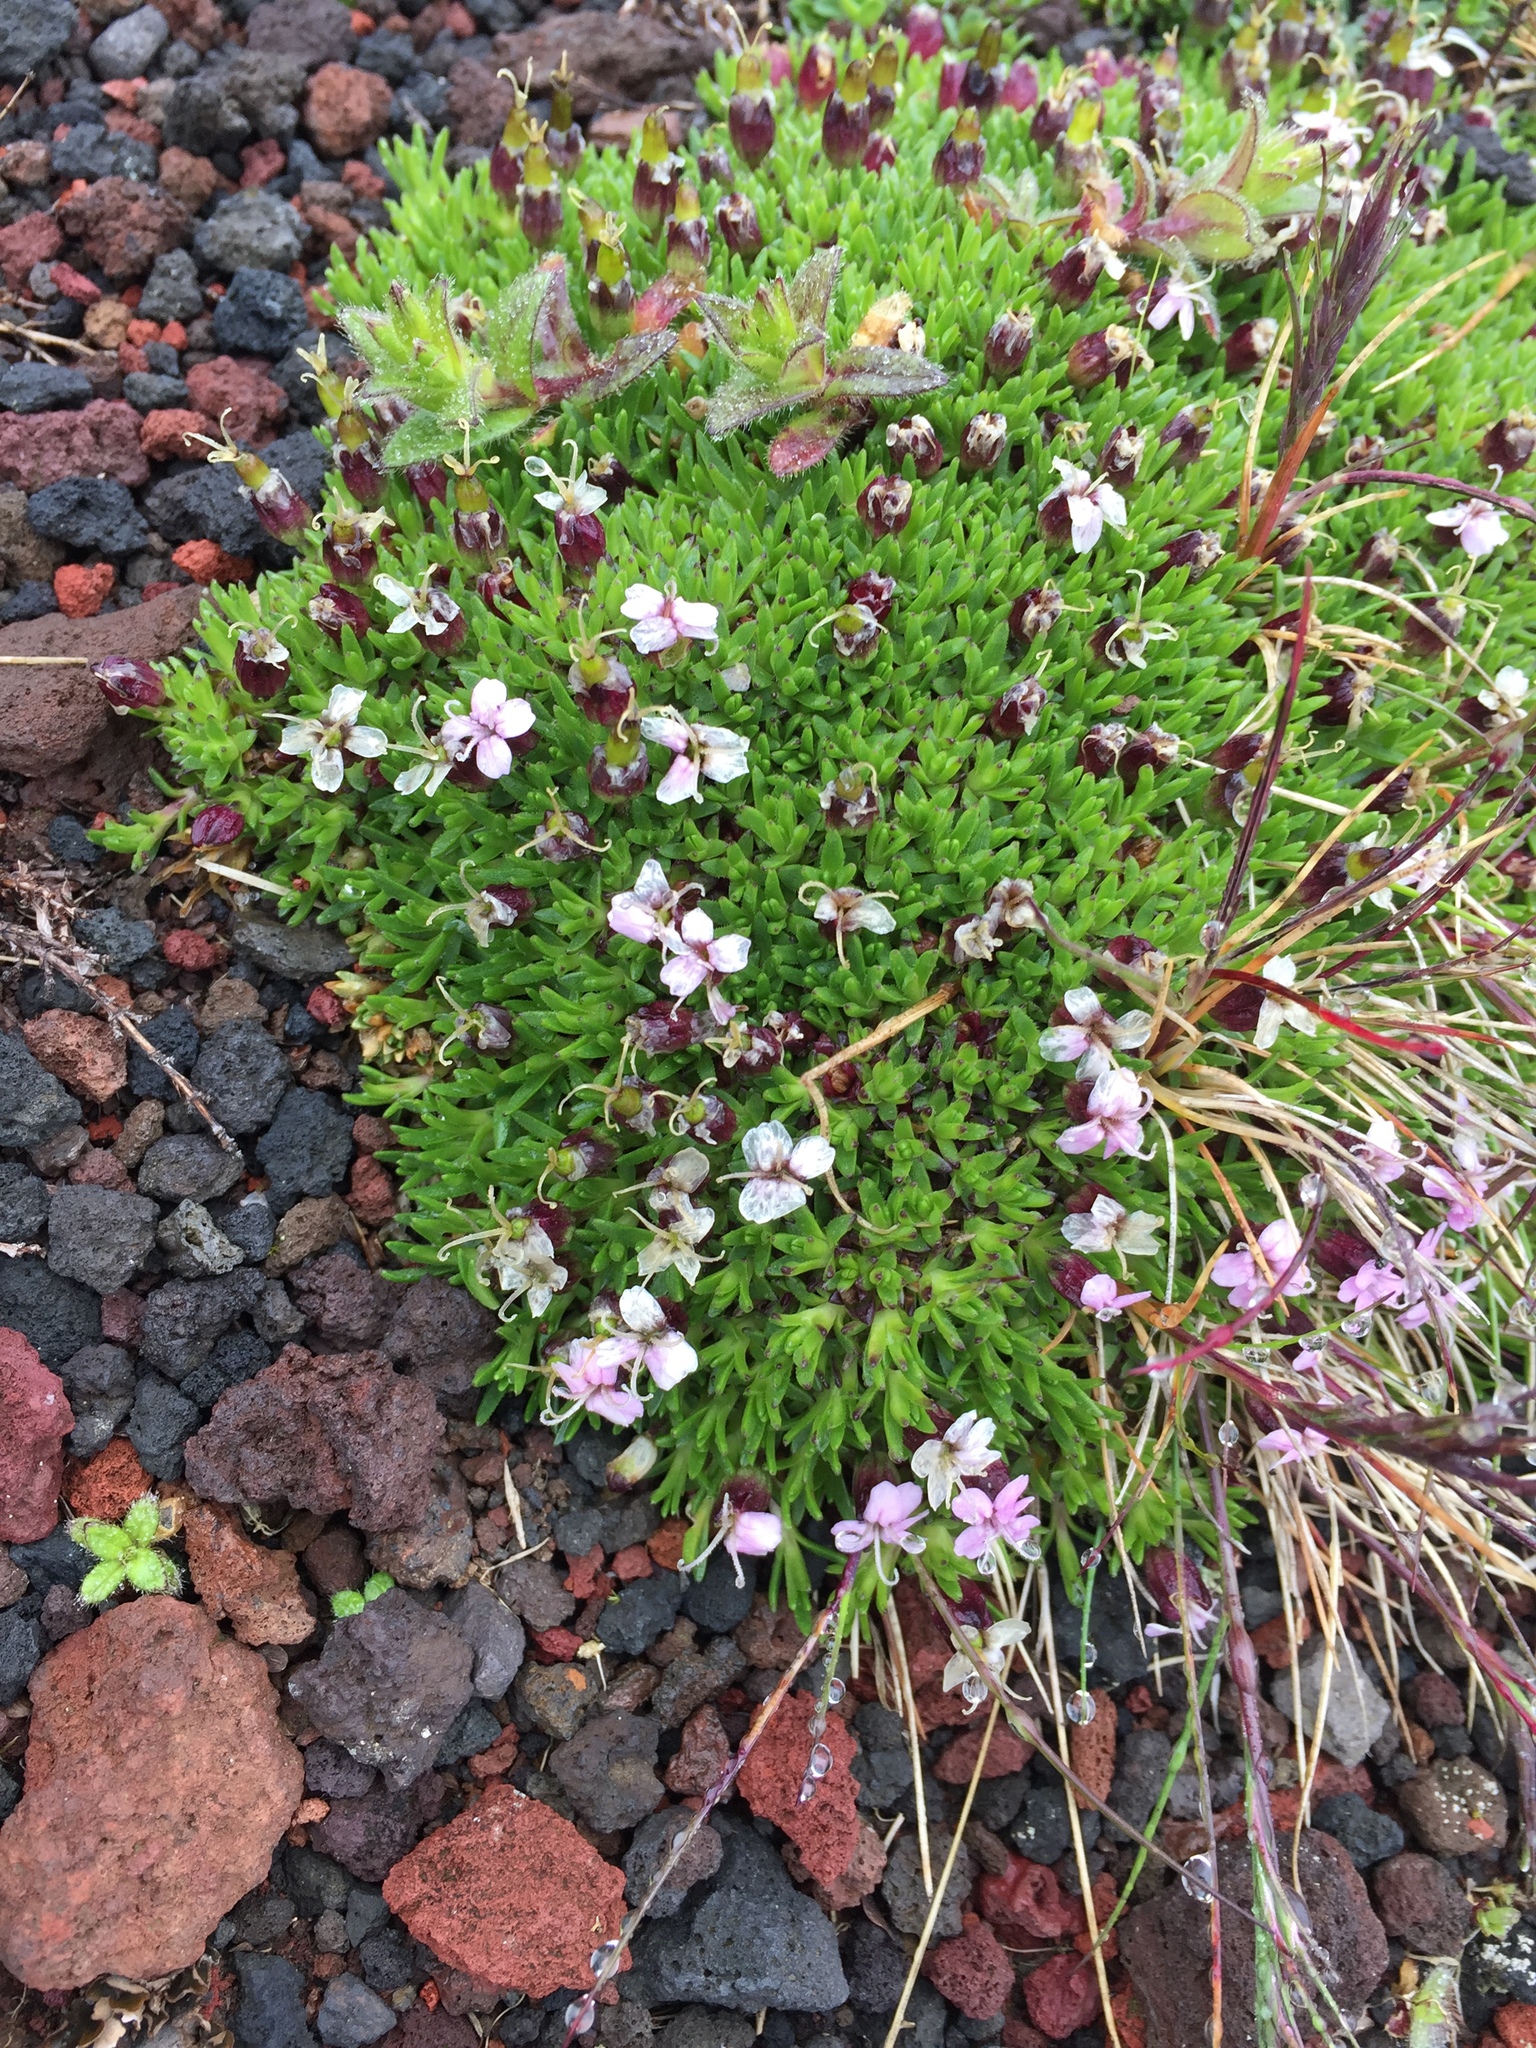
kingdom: Plantae
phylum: Tracheophyta
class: Magnoliopsida
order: Caryophyllales
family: Caryophyllaceae
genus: Silene
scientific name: Silene acaulis
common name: Moss campion
